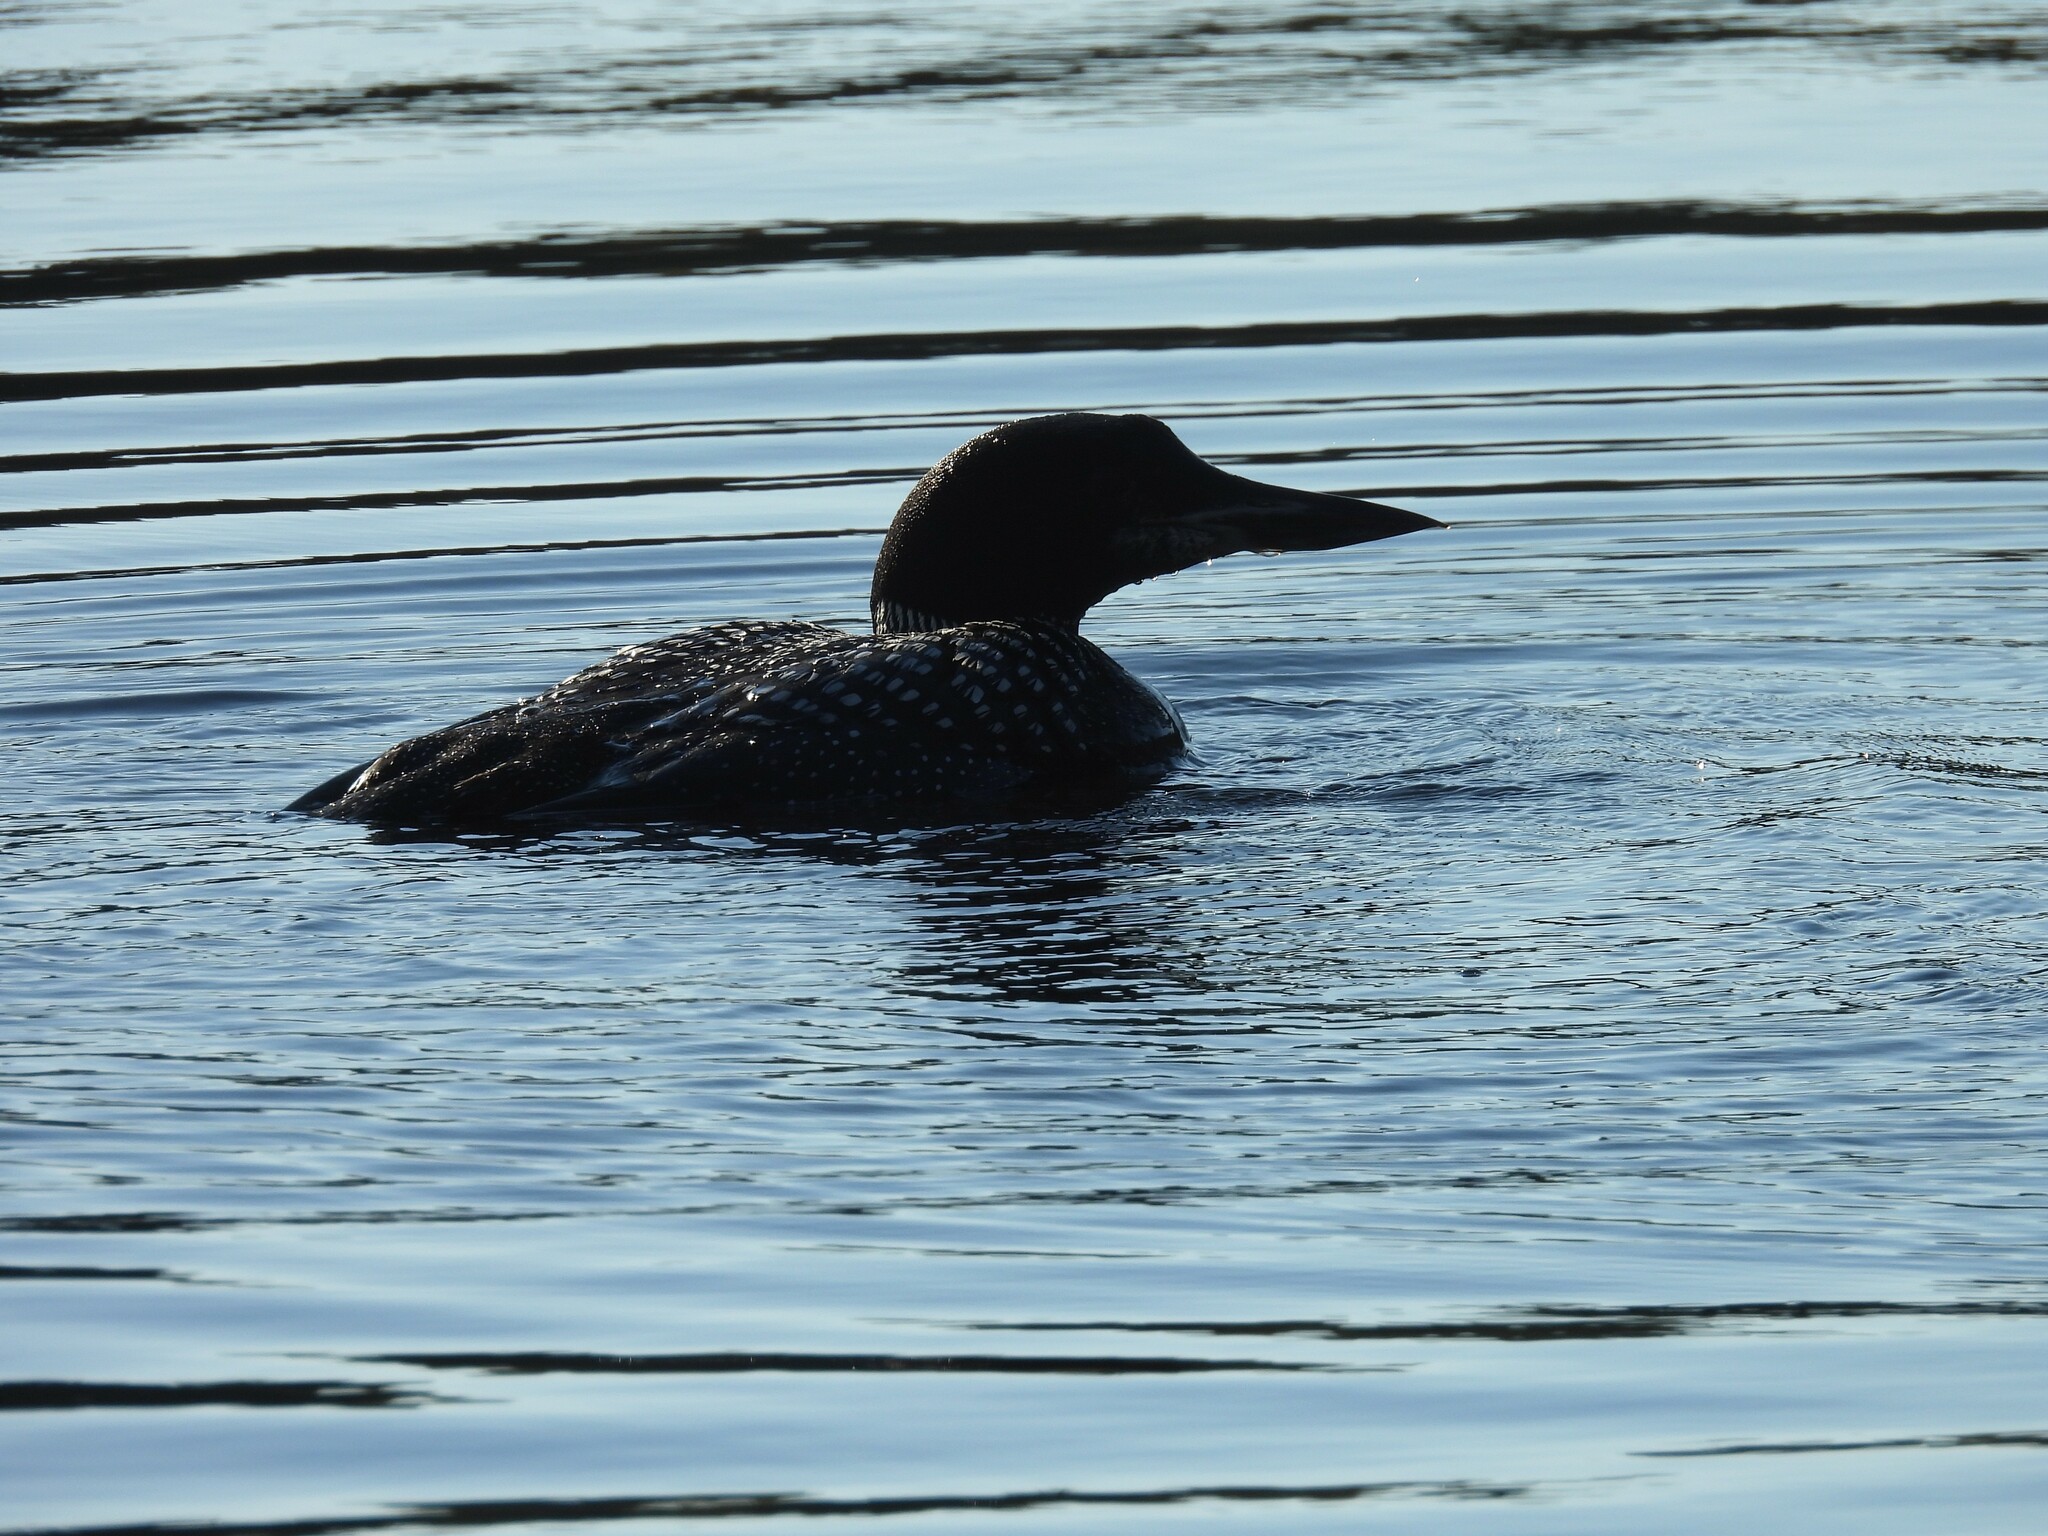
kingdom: Animalia
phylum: Chordata
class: Aves
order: Gaviiformes
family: Gaviidae
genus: Gavia
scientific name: Gavia immer
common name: Common loon
